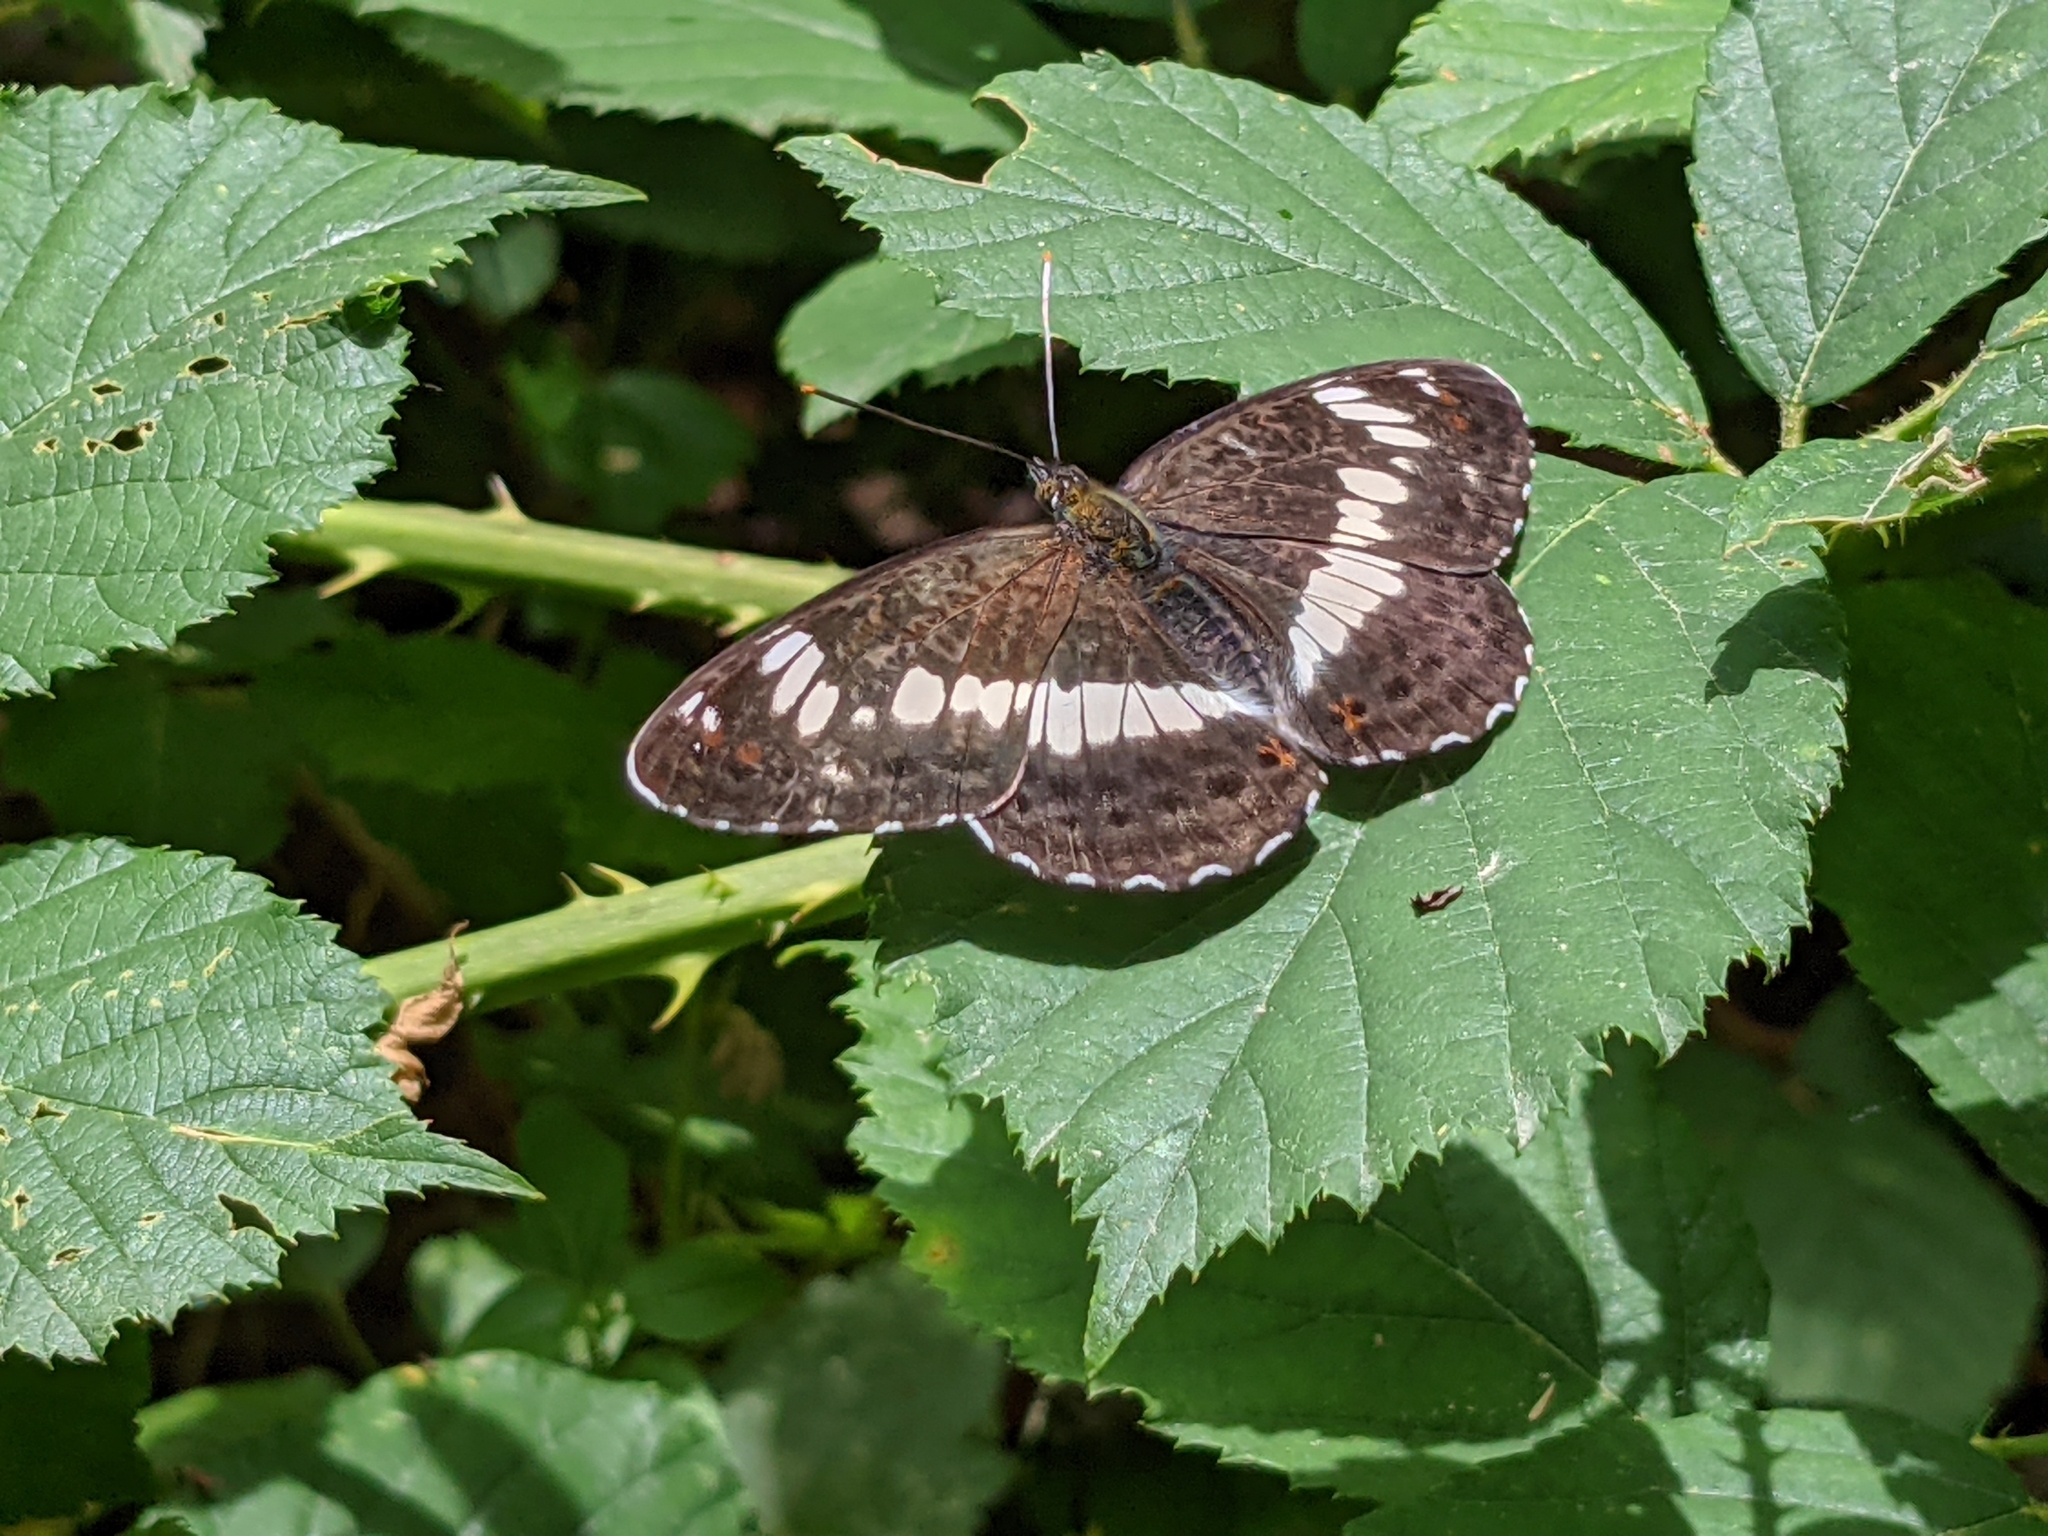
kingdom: Animalia
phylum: Arthropoda
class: Insecta
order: Lepidoptera
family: Nymphalidae
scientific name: Nymphalidae
